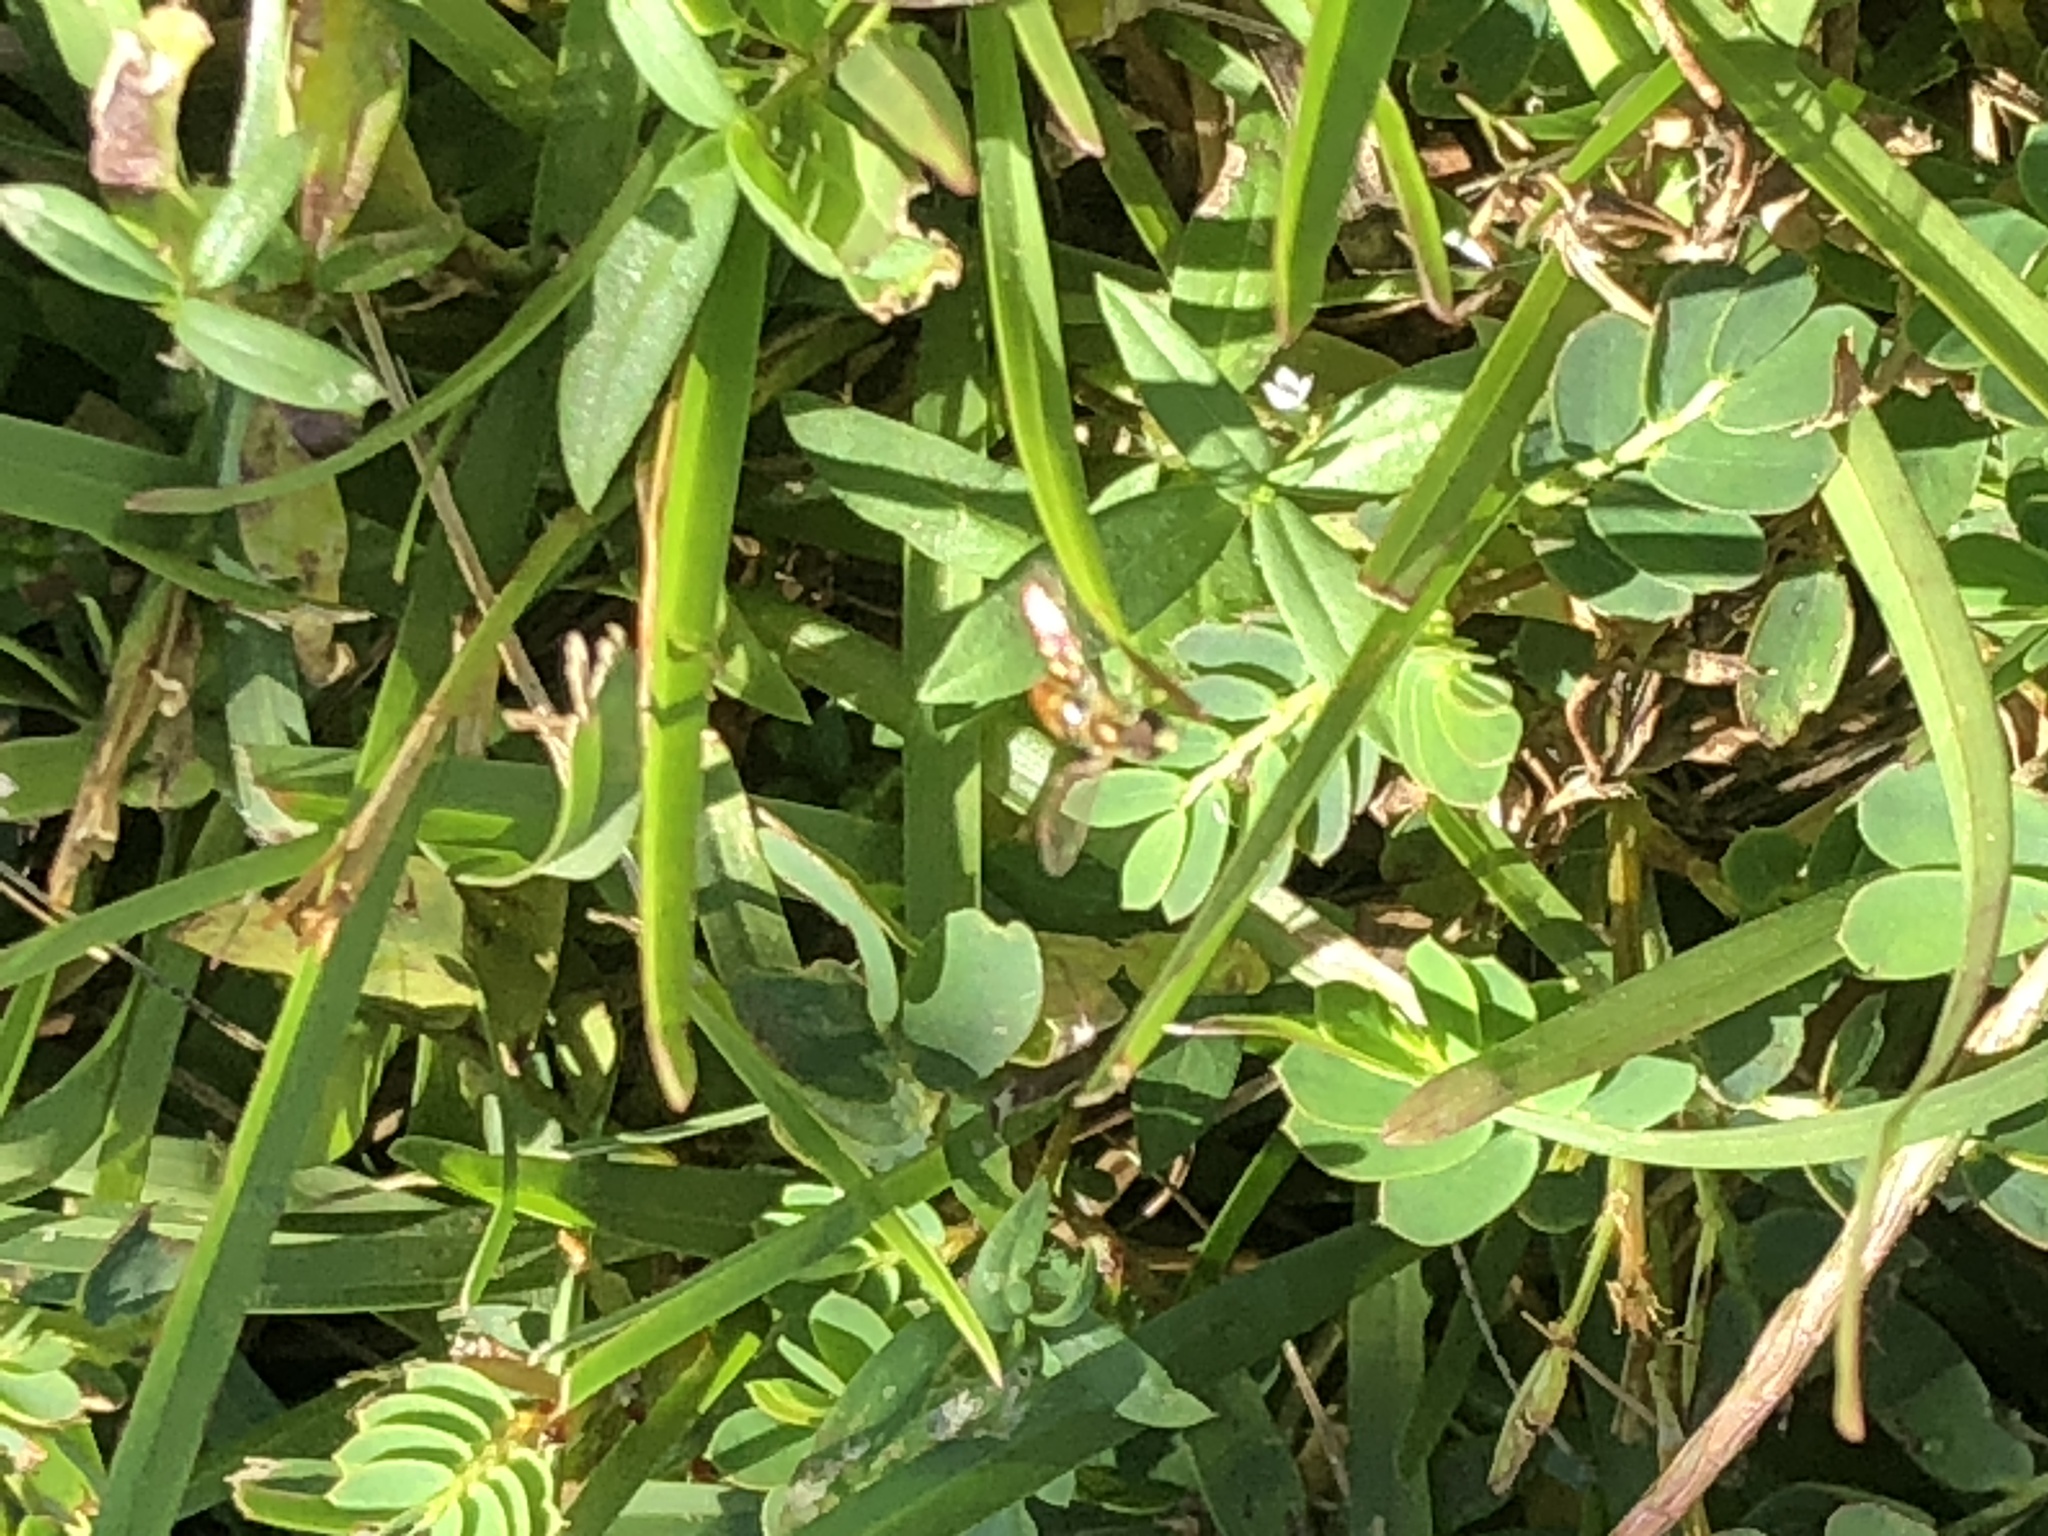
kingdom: Animalia
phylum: Arthropoda
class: Insecta
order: Diptera
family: Syrphidae
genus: Toxomerus
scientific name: Toxomerus
